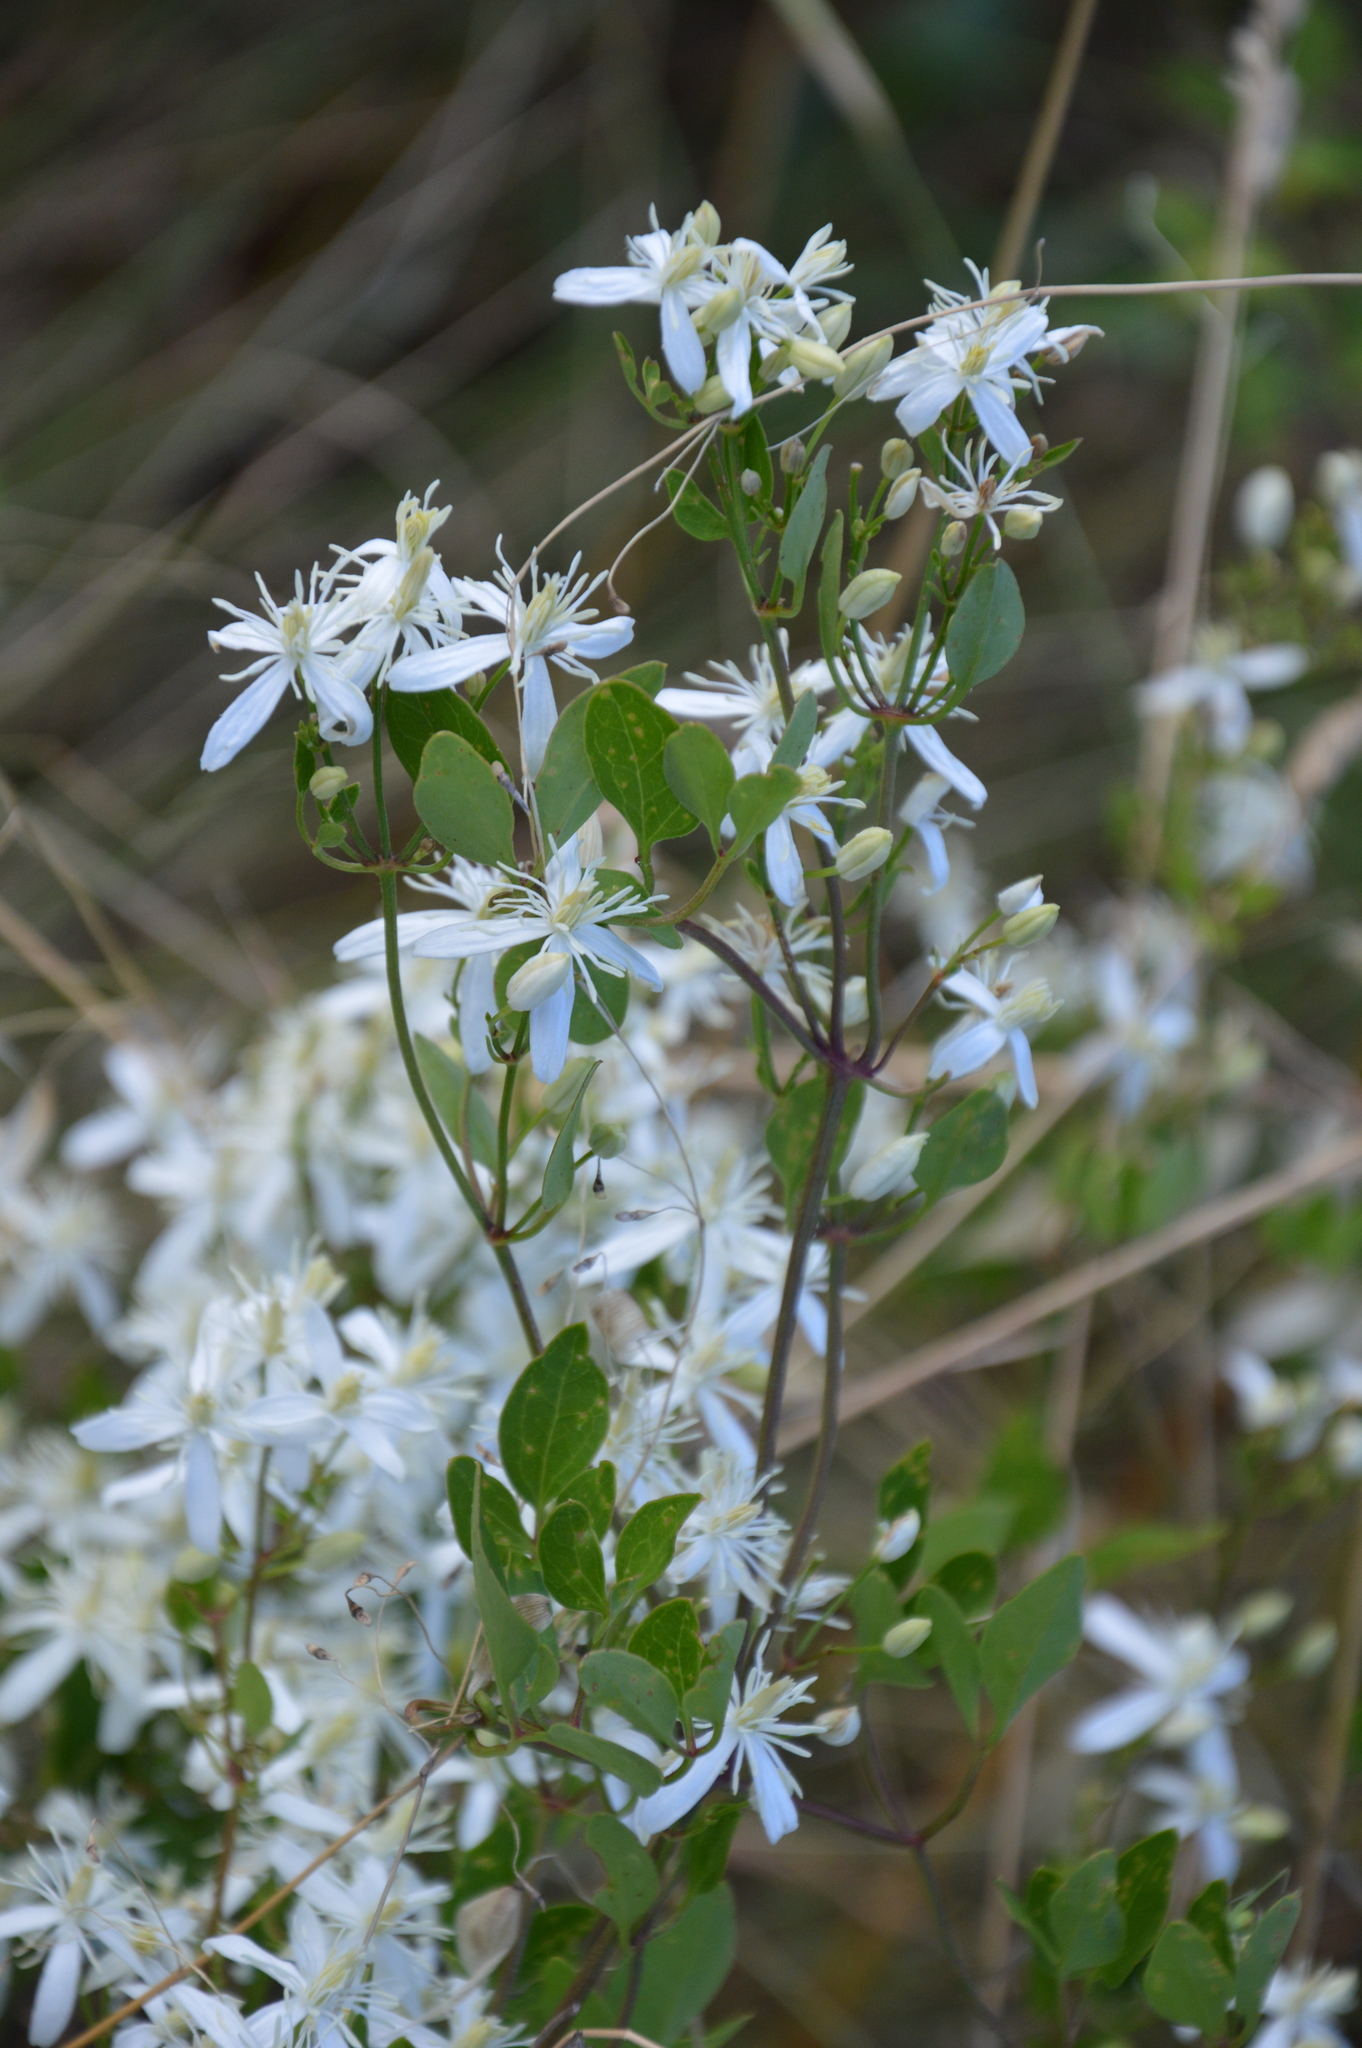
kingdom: Plantae
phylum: Tracheophyta
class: Magnoliopsida
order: Ranunculales
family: Ranunculaceae
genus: Clematis
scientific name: Clematis flammula
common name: Virgin's-bower
